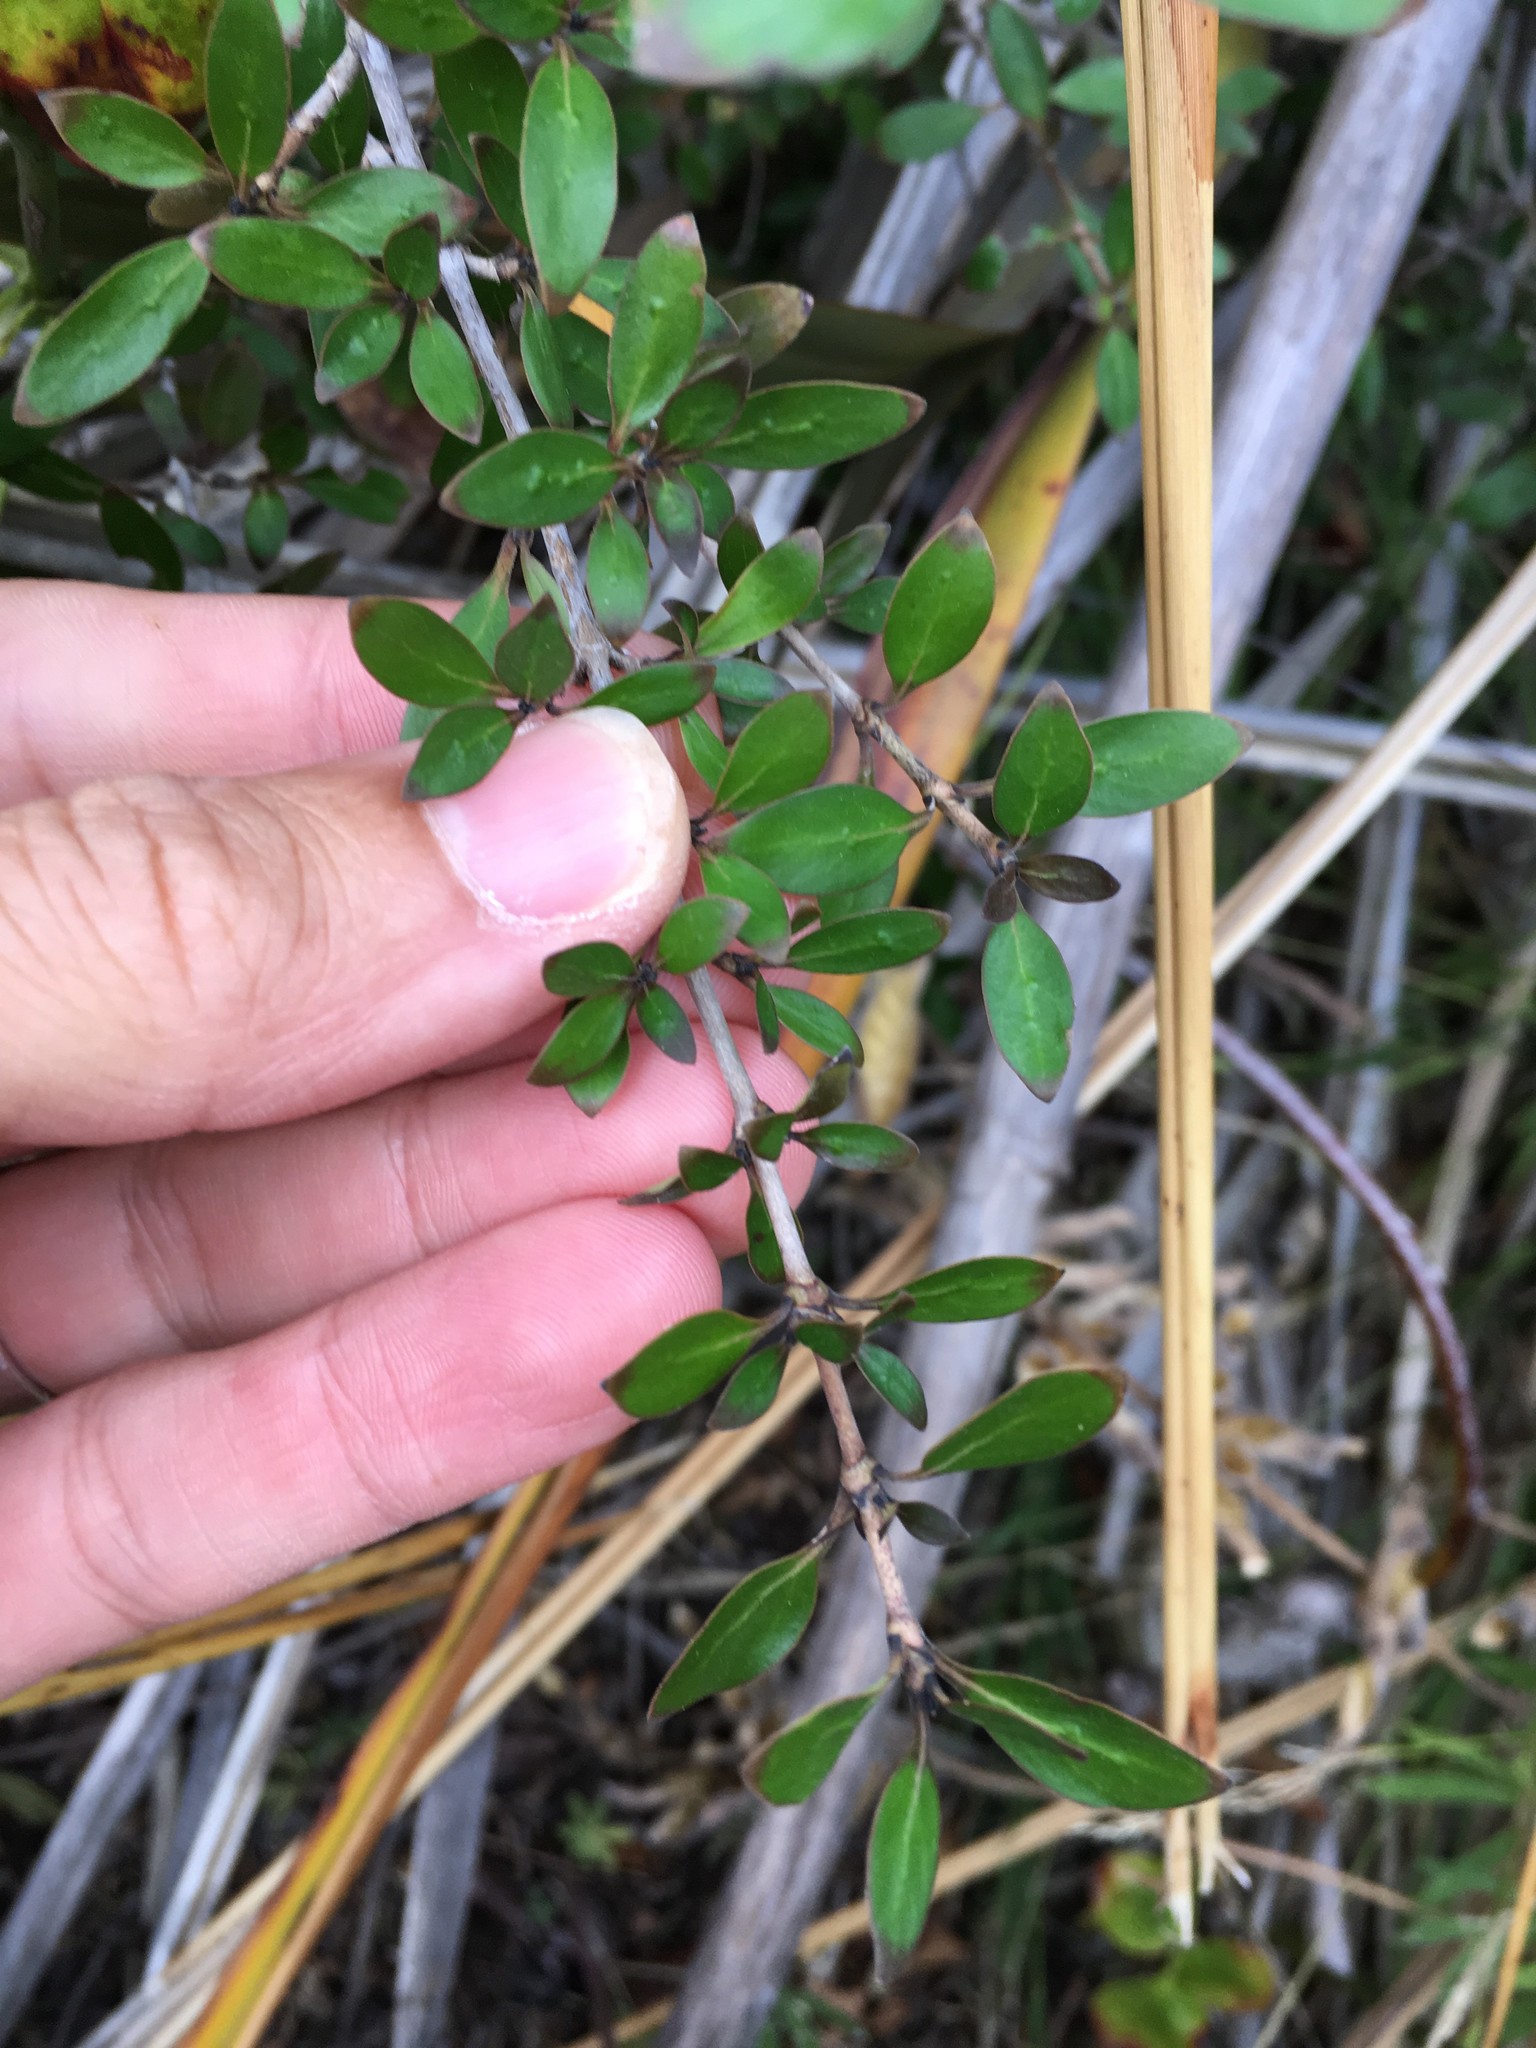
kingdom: Plantae
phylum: Tracheophyta
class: Magnoliopsida
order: Gentianales
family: Rubiaceae
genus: Coprosma
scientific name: Coprosma cunninghamii
